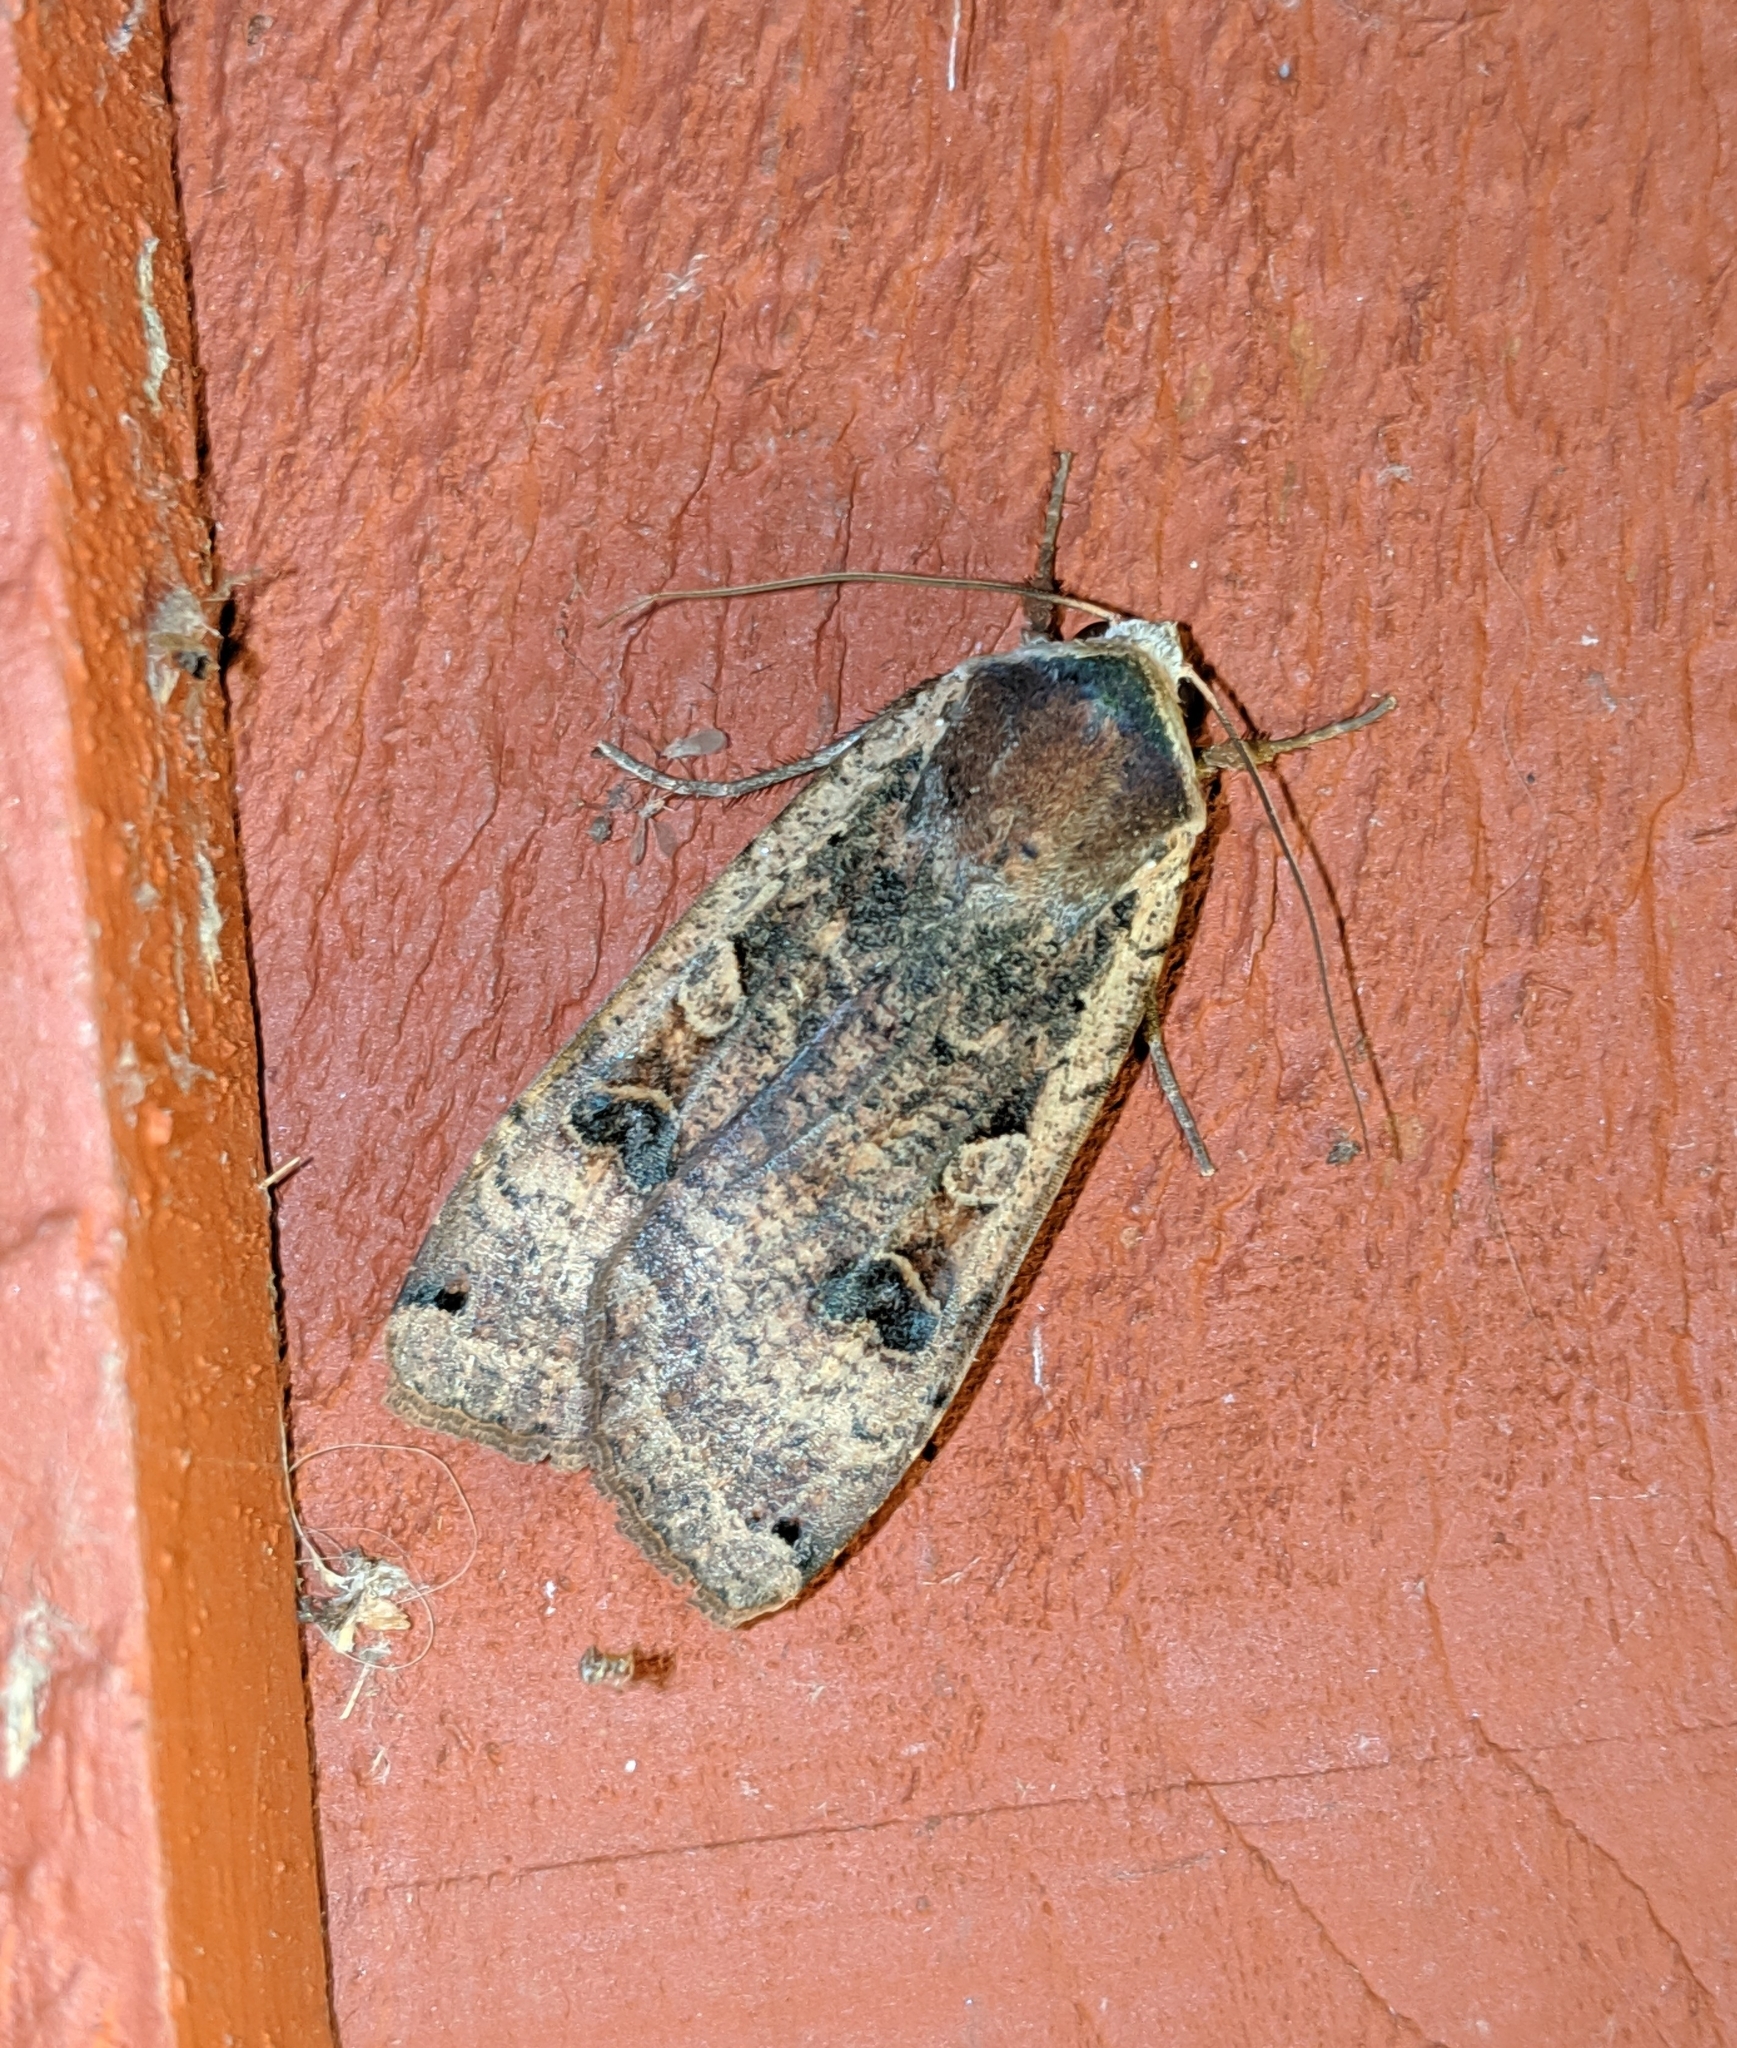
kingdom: Animalia
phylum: Arthropoda
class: Insecta
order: Lepidoptera
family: Noctuidae
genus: Noctua
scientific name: Noctua pronuba
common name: Large yellow underwing
